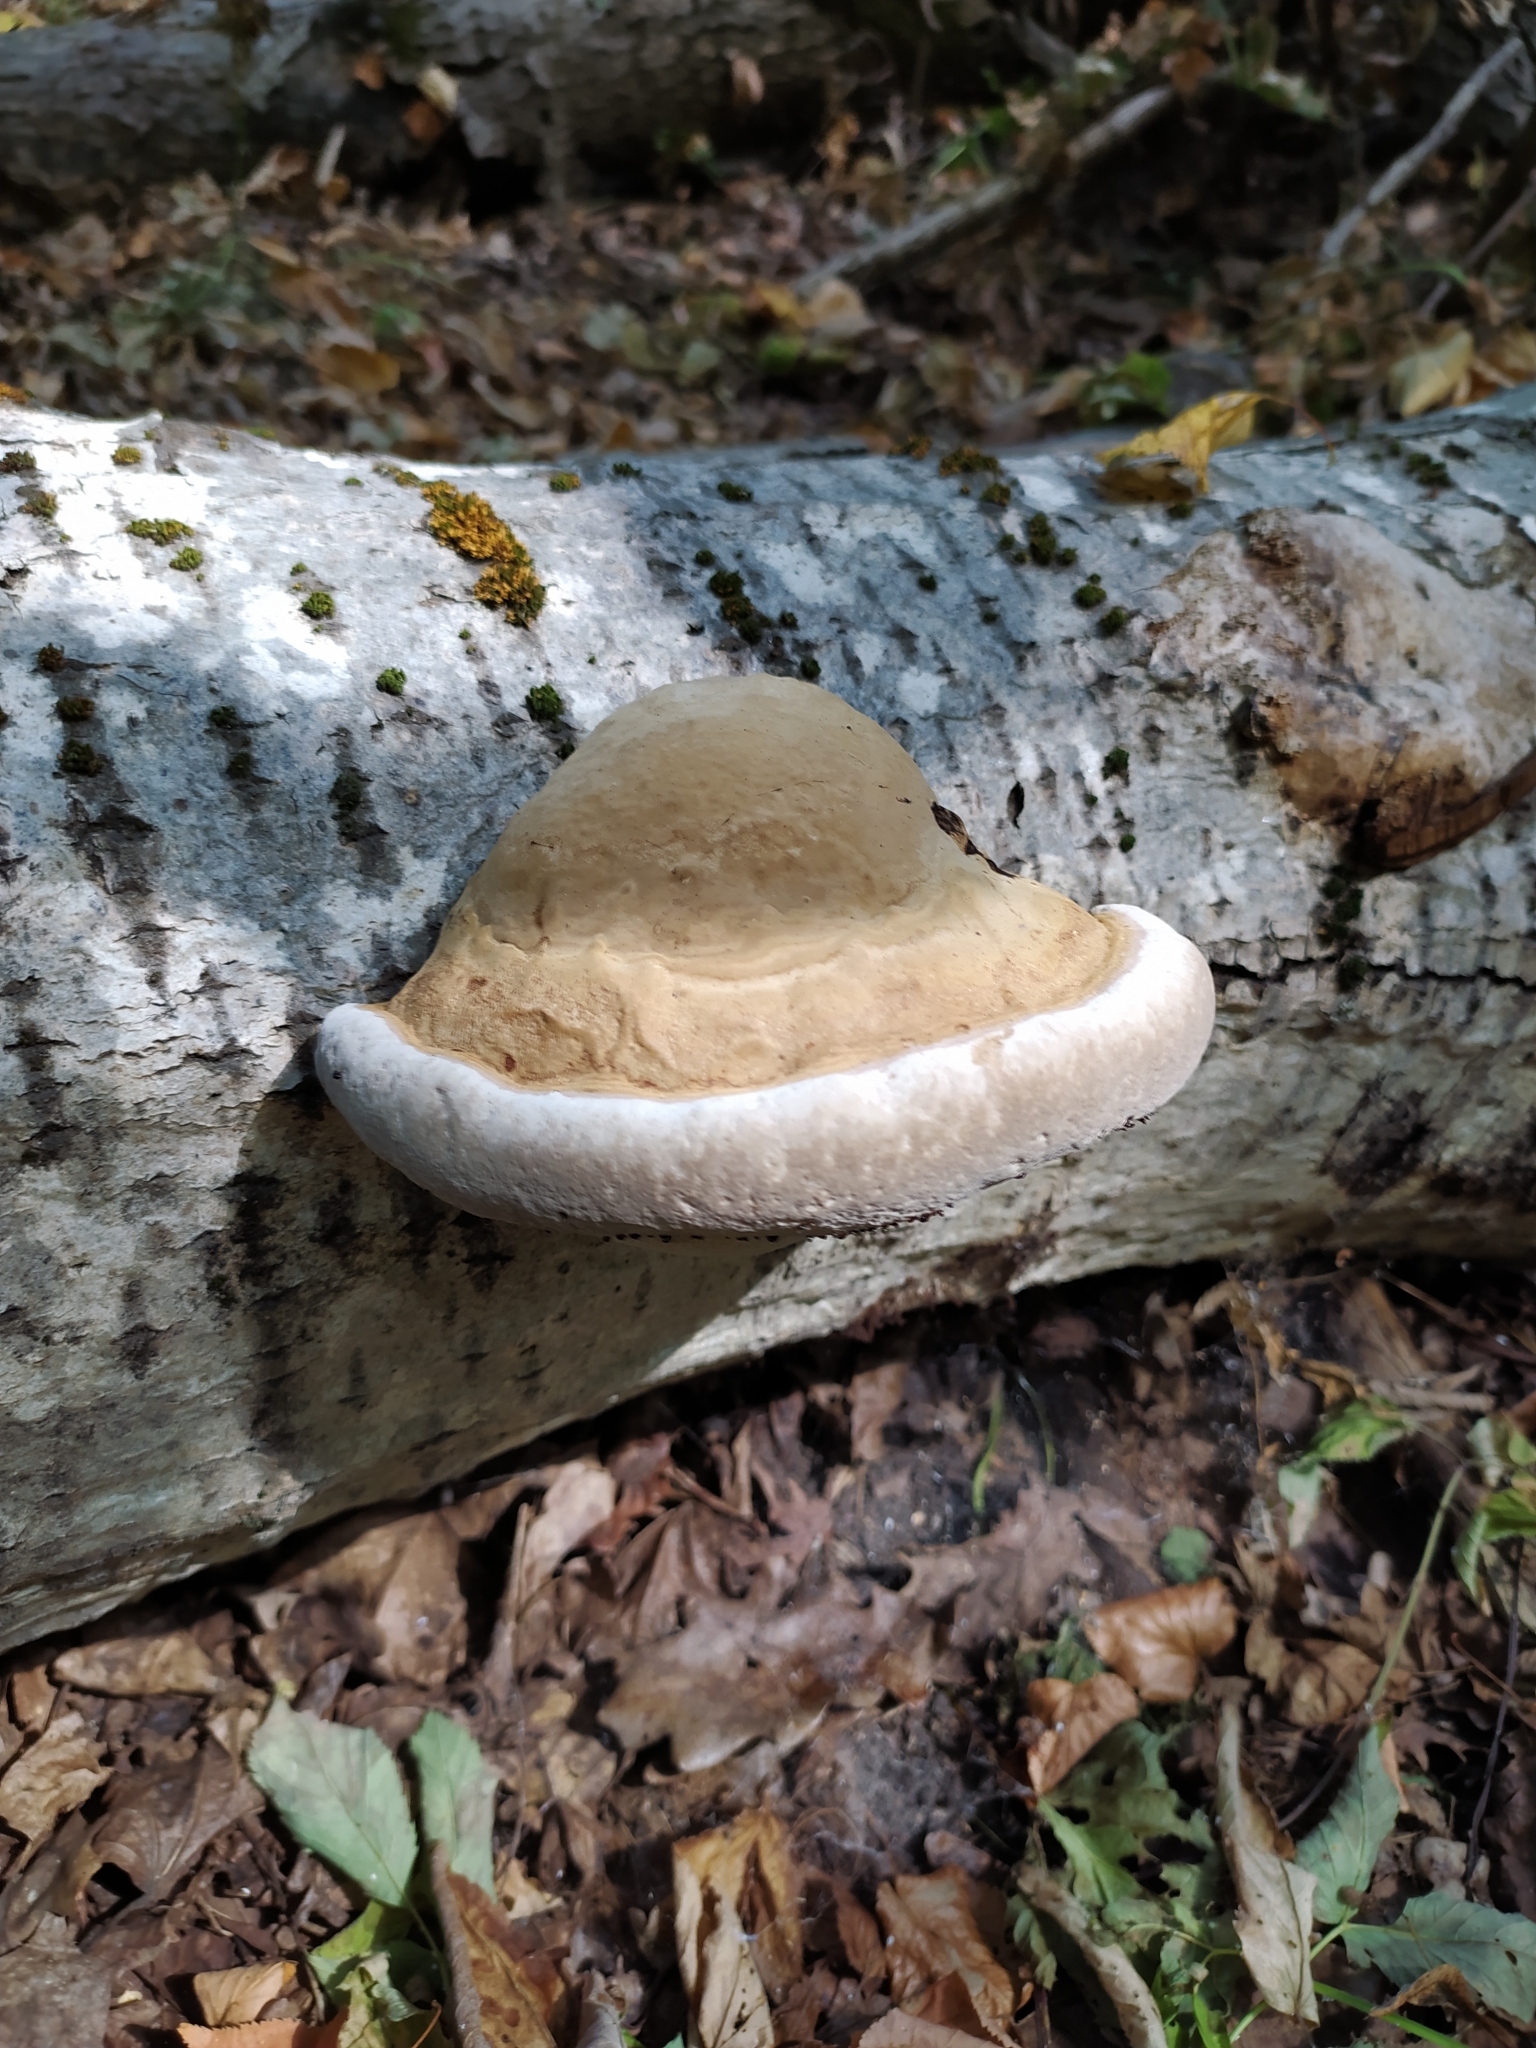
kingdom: Fungi
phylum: Basidiomycota
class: Agaricomycetes
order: Polyporales
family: Polyporaceae
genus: Fomes
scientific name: Fomes fomentarius
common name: Hoof fungus
